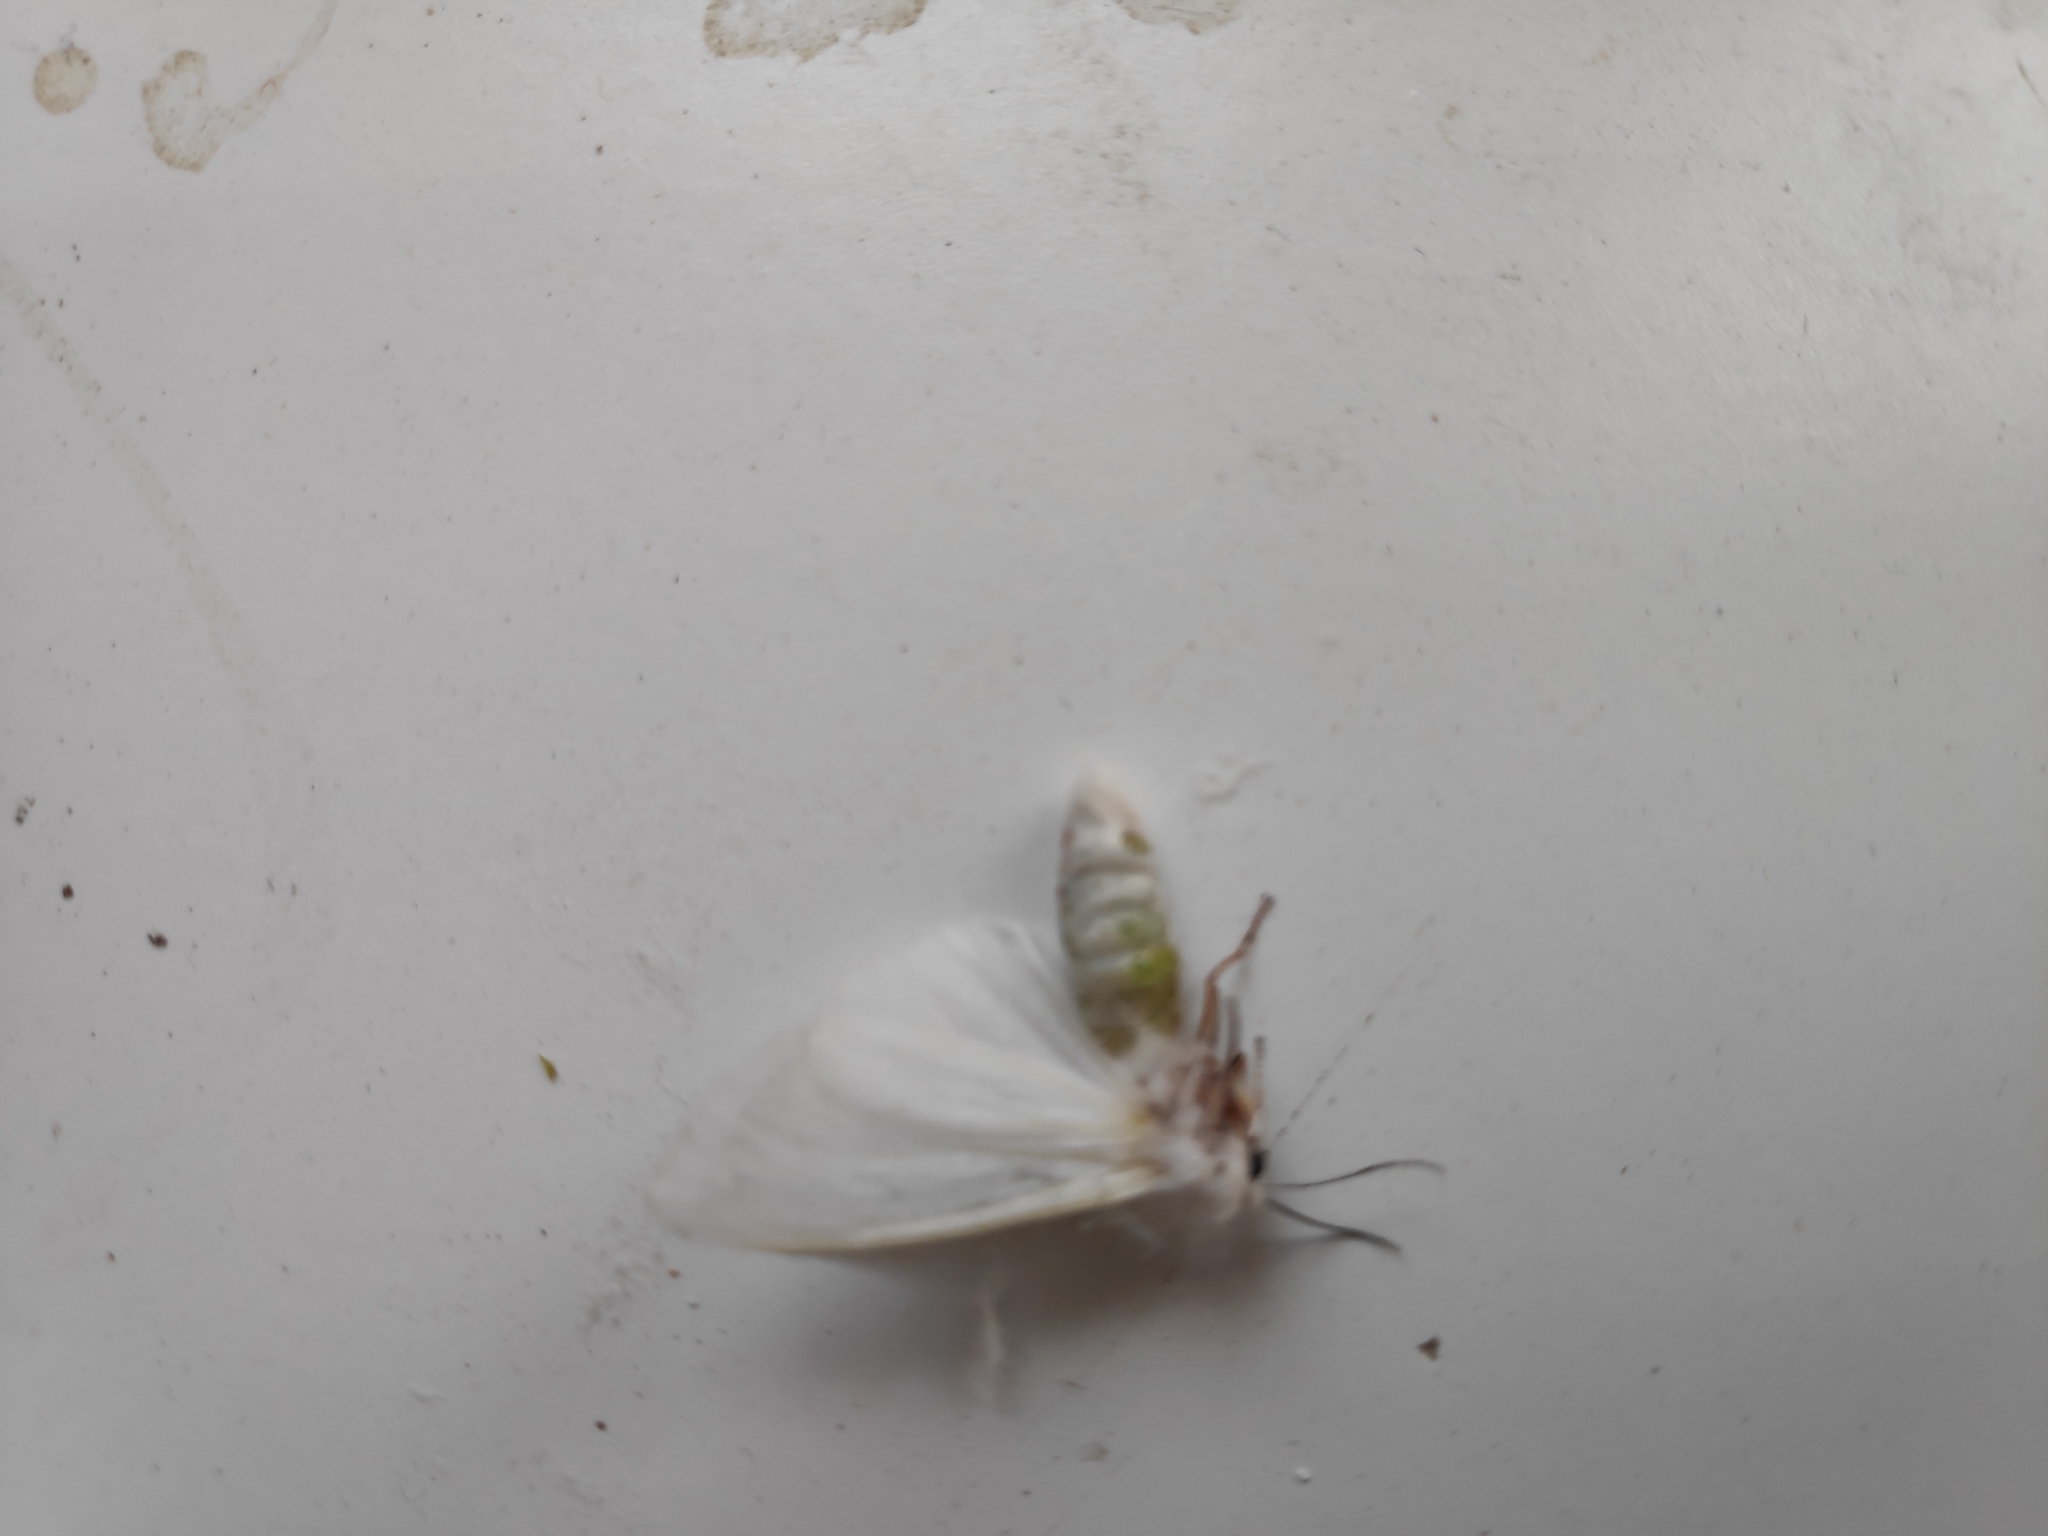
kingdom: Animalia
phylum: Arthropoda
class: Insecta
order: Lepidoptera
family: Erebidae
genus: Hyphantria
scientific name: Hyphantria cunea
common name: American white moth
